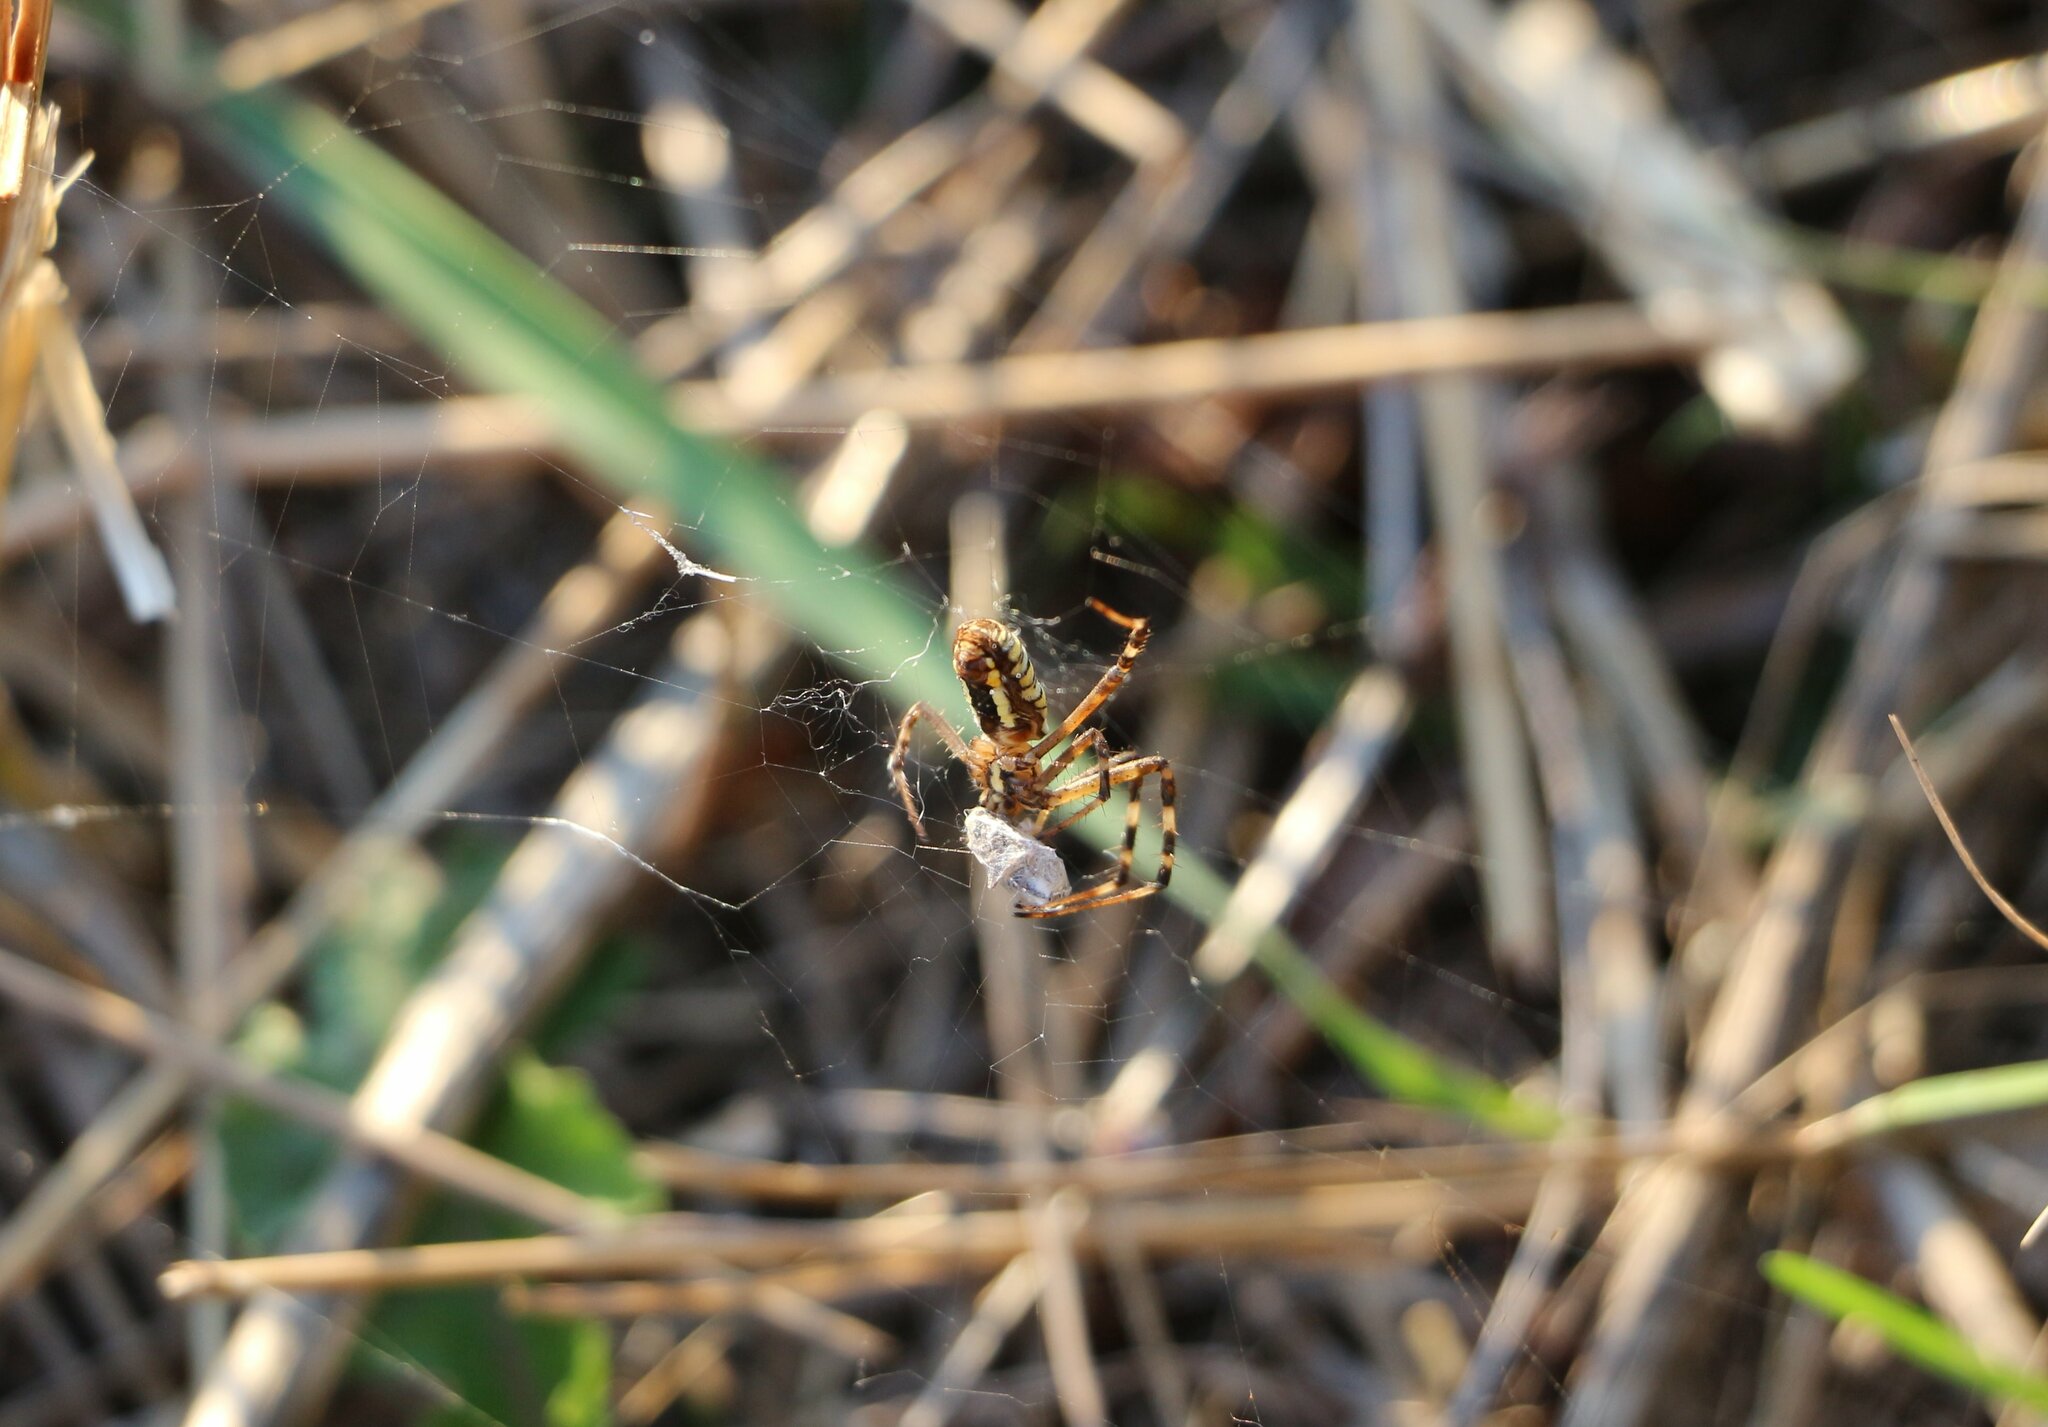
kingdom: Animalia
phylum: Arthropoda
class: Arachnida
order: Araneae
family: Araneidae
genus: Argiope
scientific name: Argiope bruennichi
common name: Wasp spider
